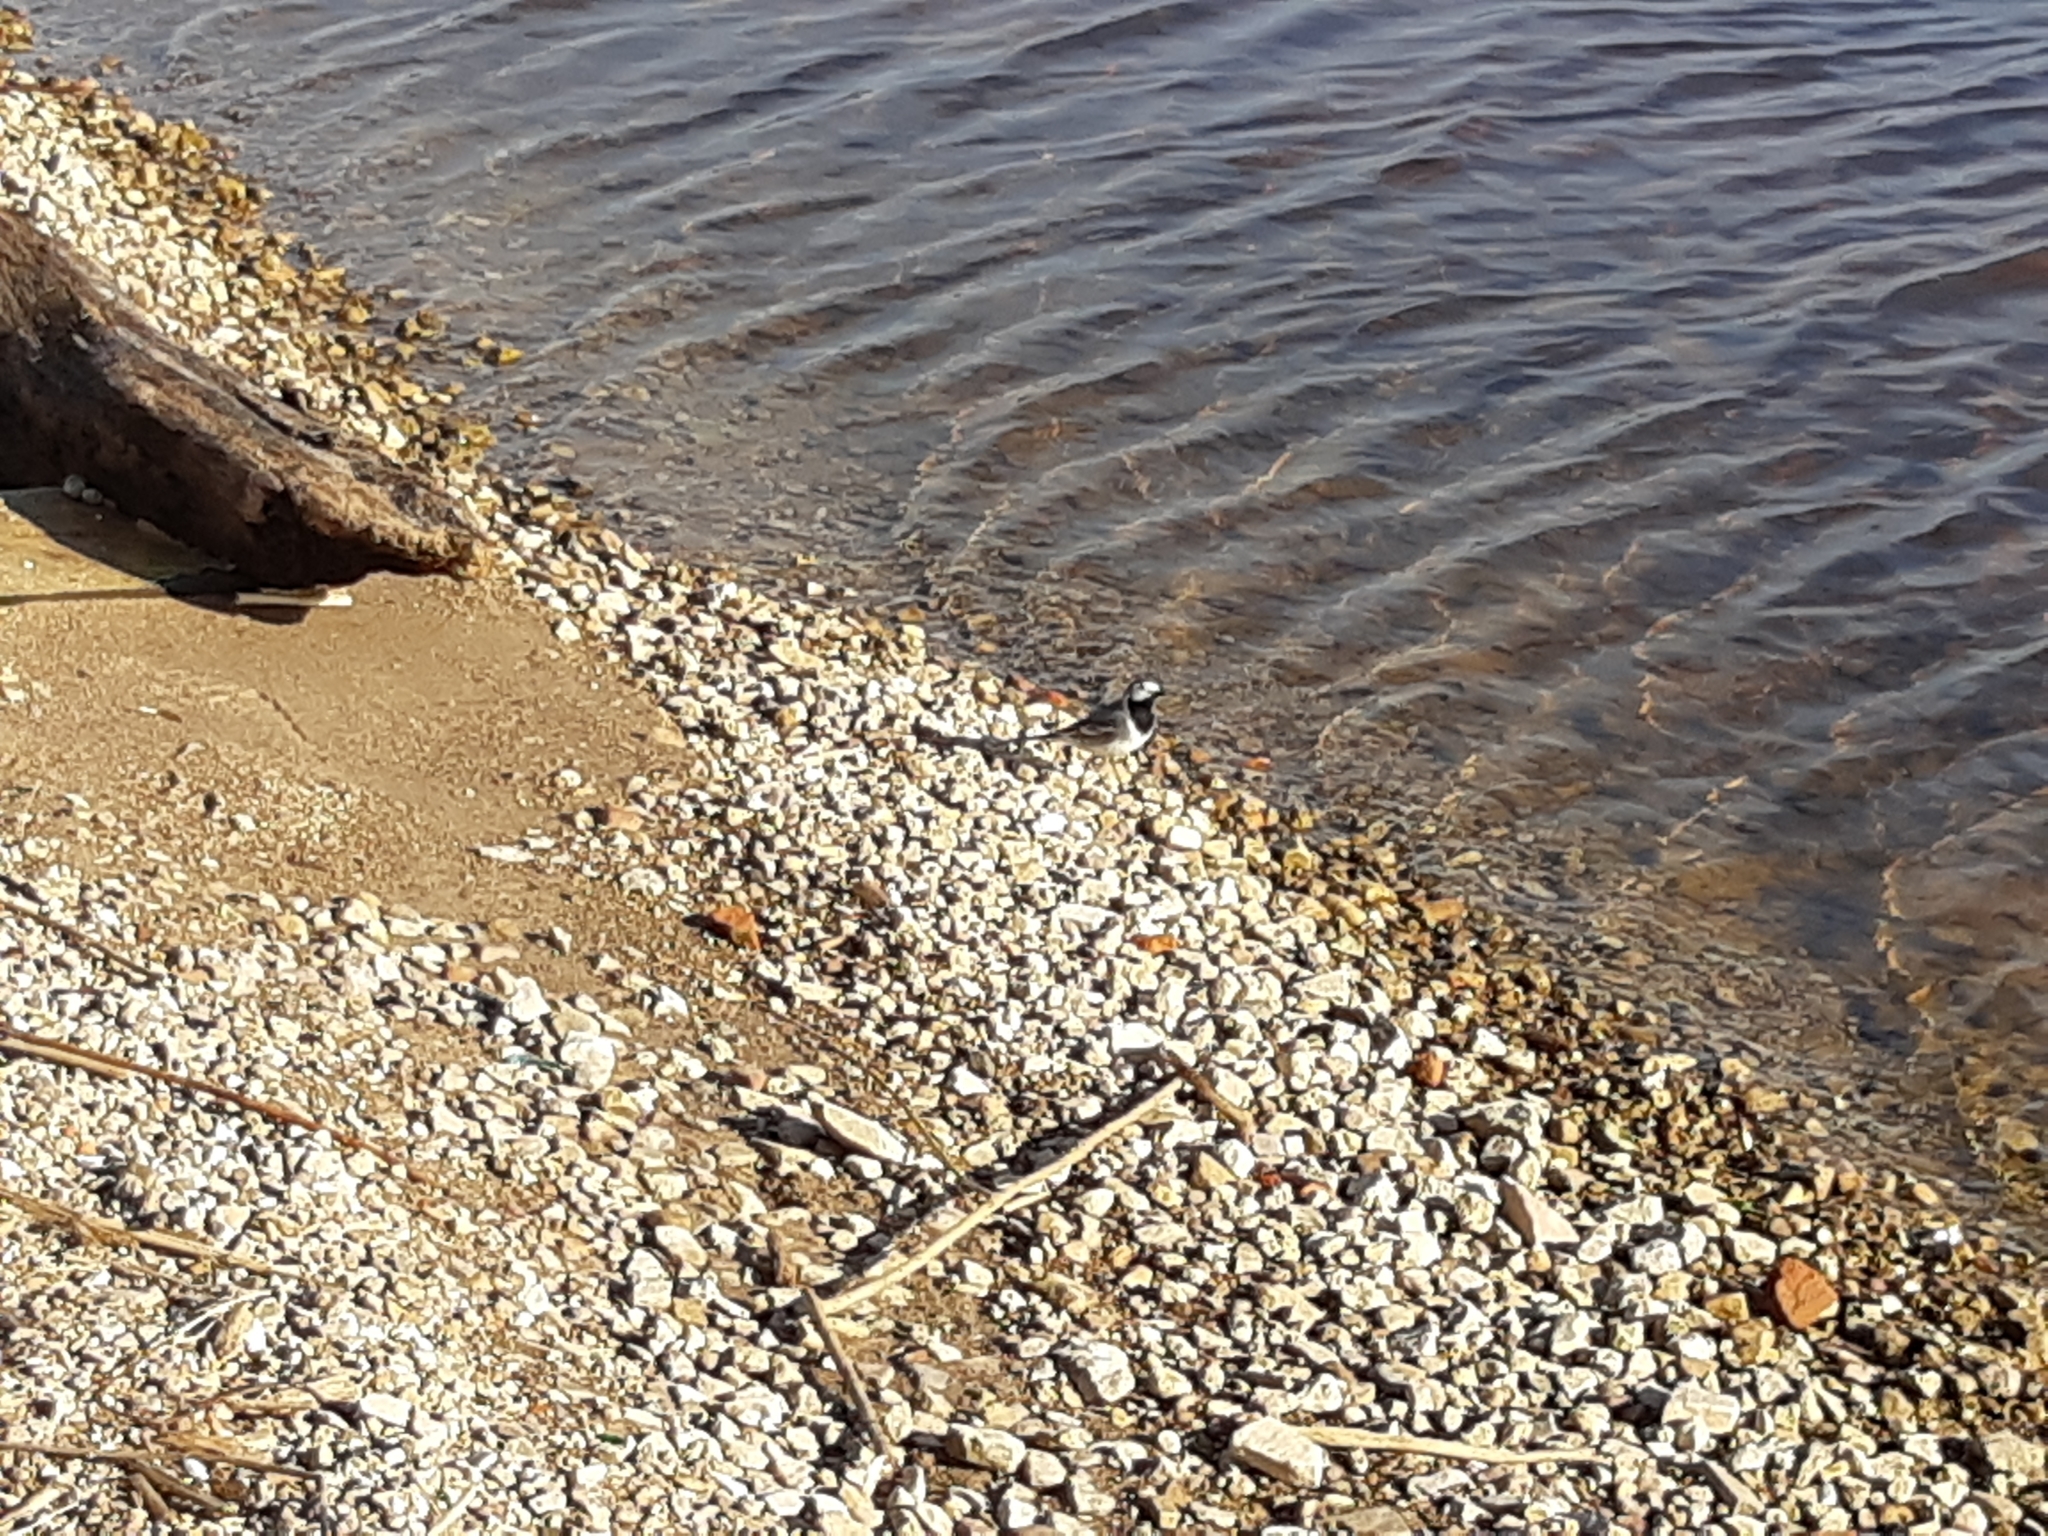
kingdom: Animalia
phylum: Chordata
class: Aves
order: Passeriformes
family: Motacillidae
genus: Motacilla
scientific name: Motacilla alba
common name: White wagtail
